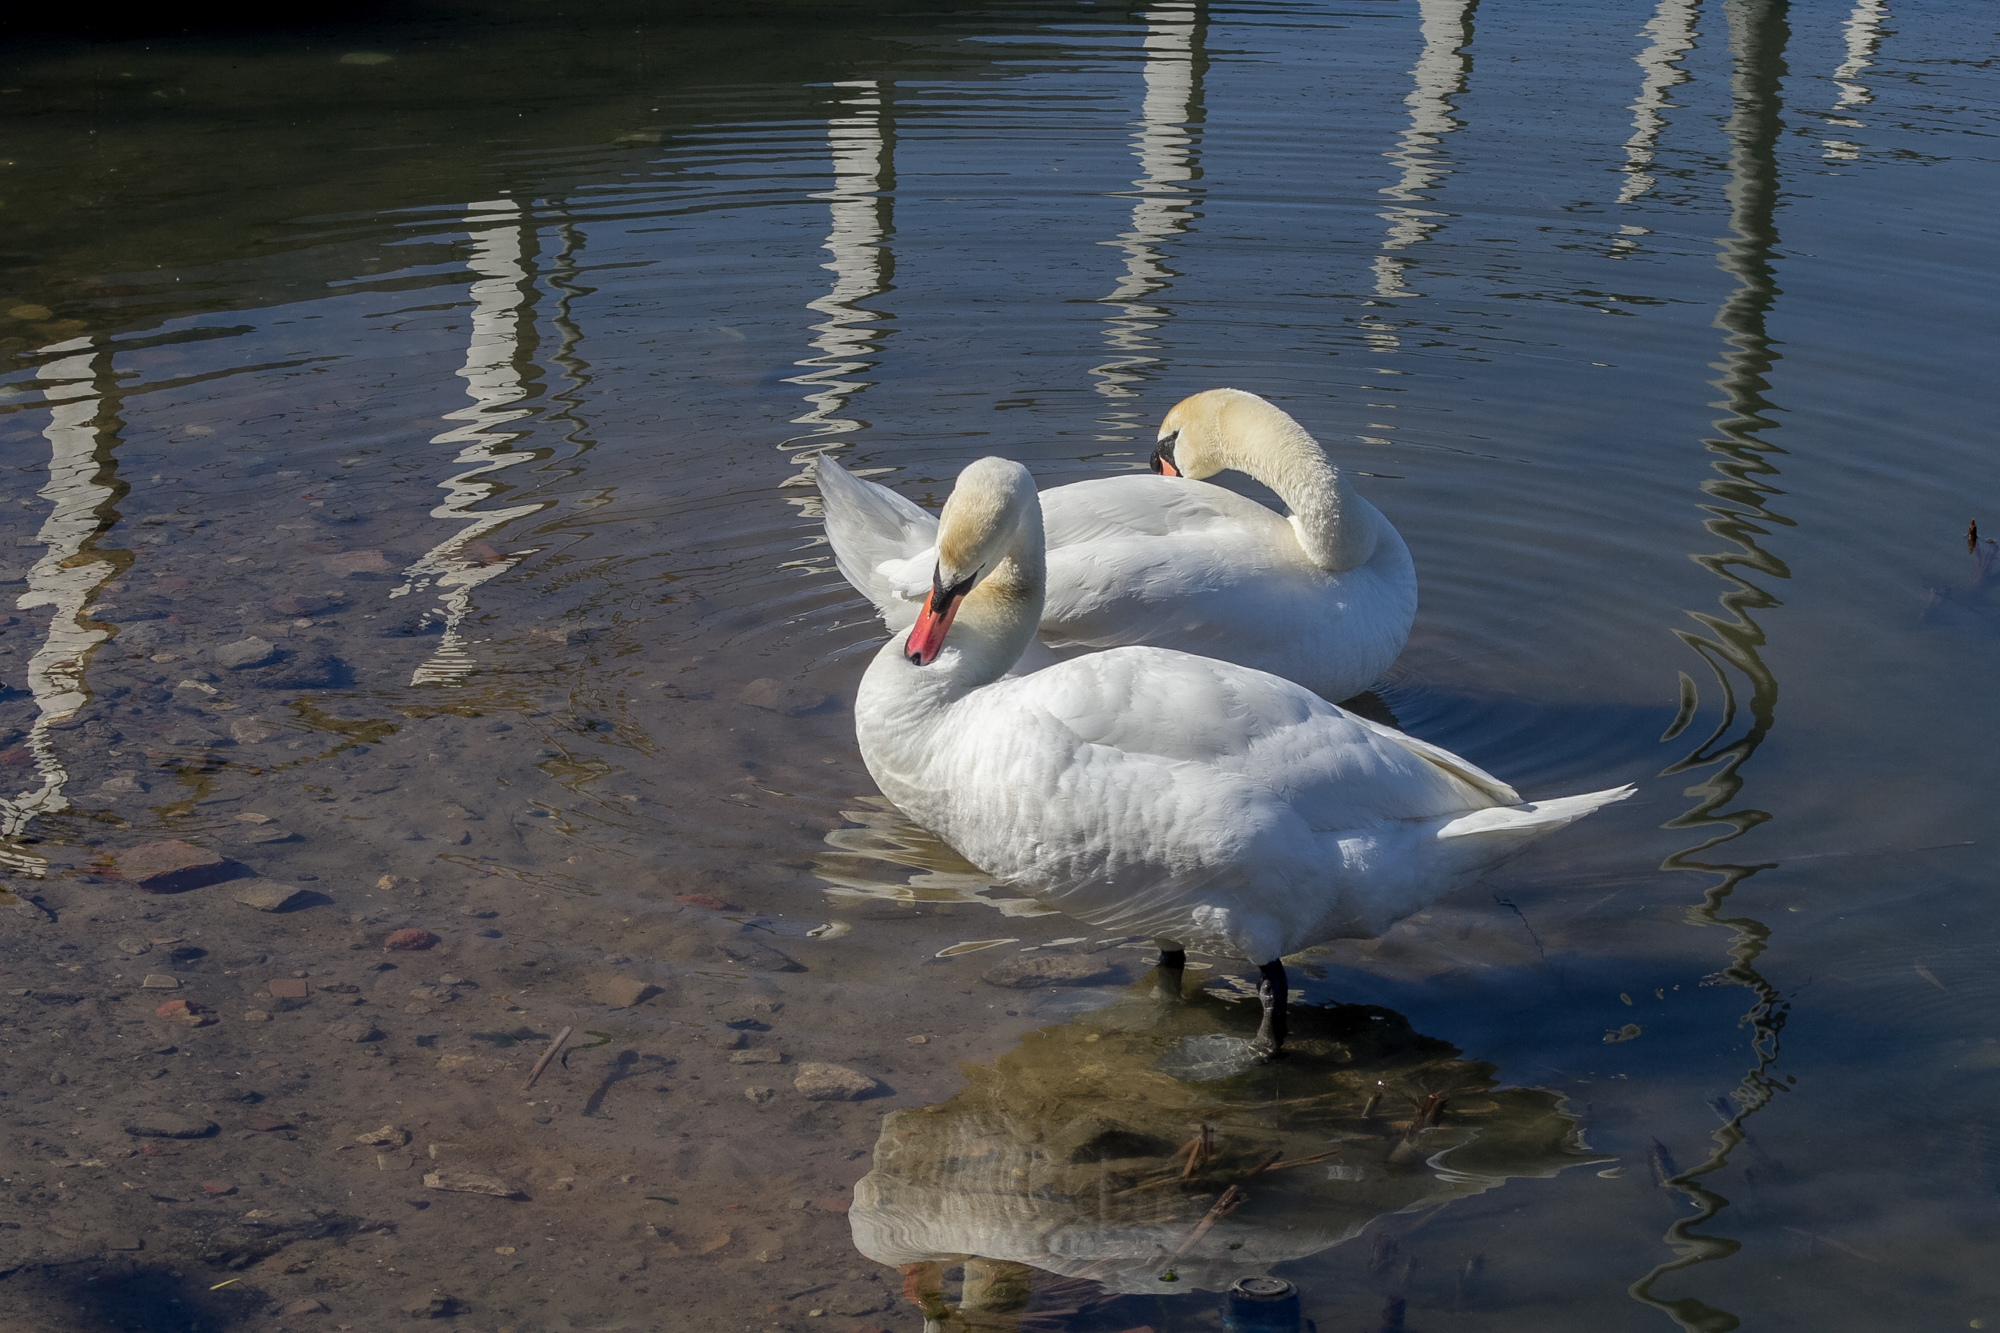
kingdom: Animalia
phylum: Chordata
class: Aves
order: Anseriformes
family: Anatidae
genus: Cygnus
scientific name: Cygnus olor
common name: Mute swan
